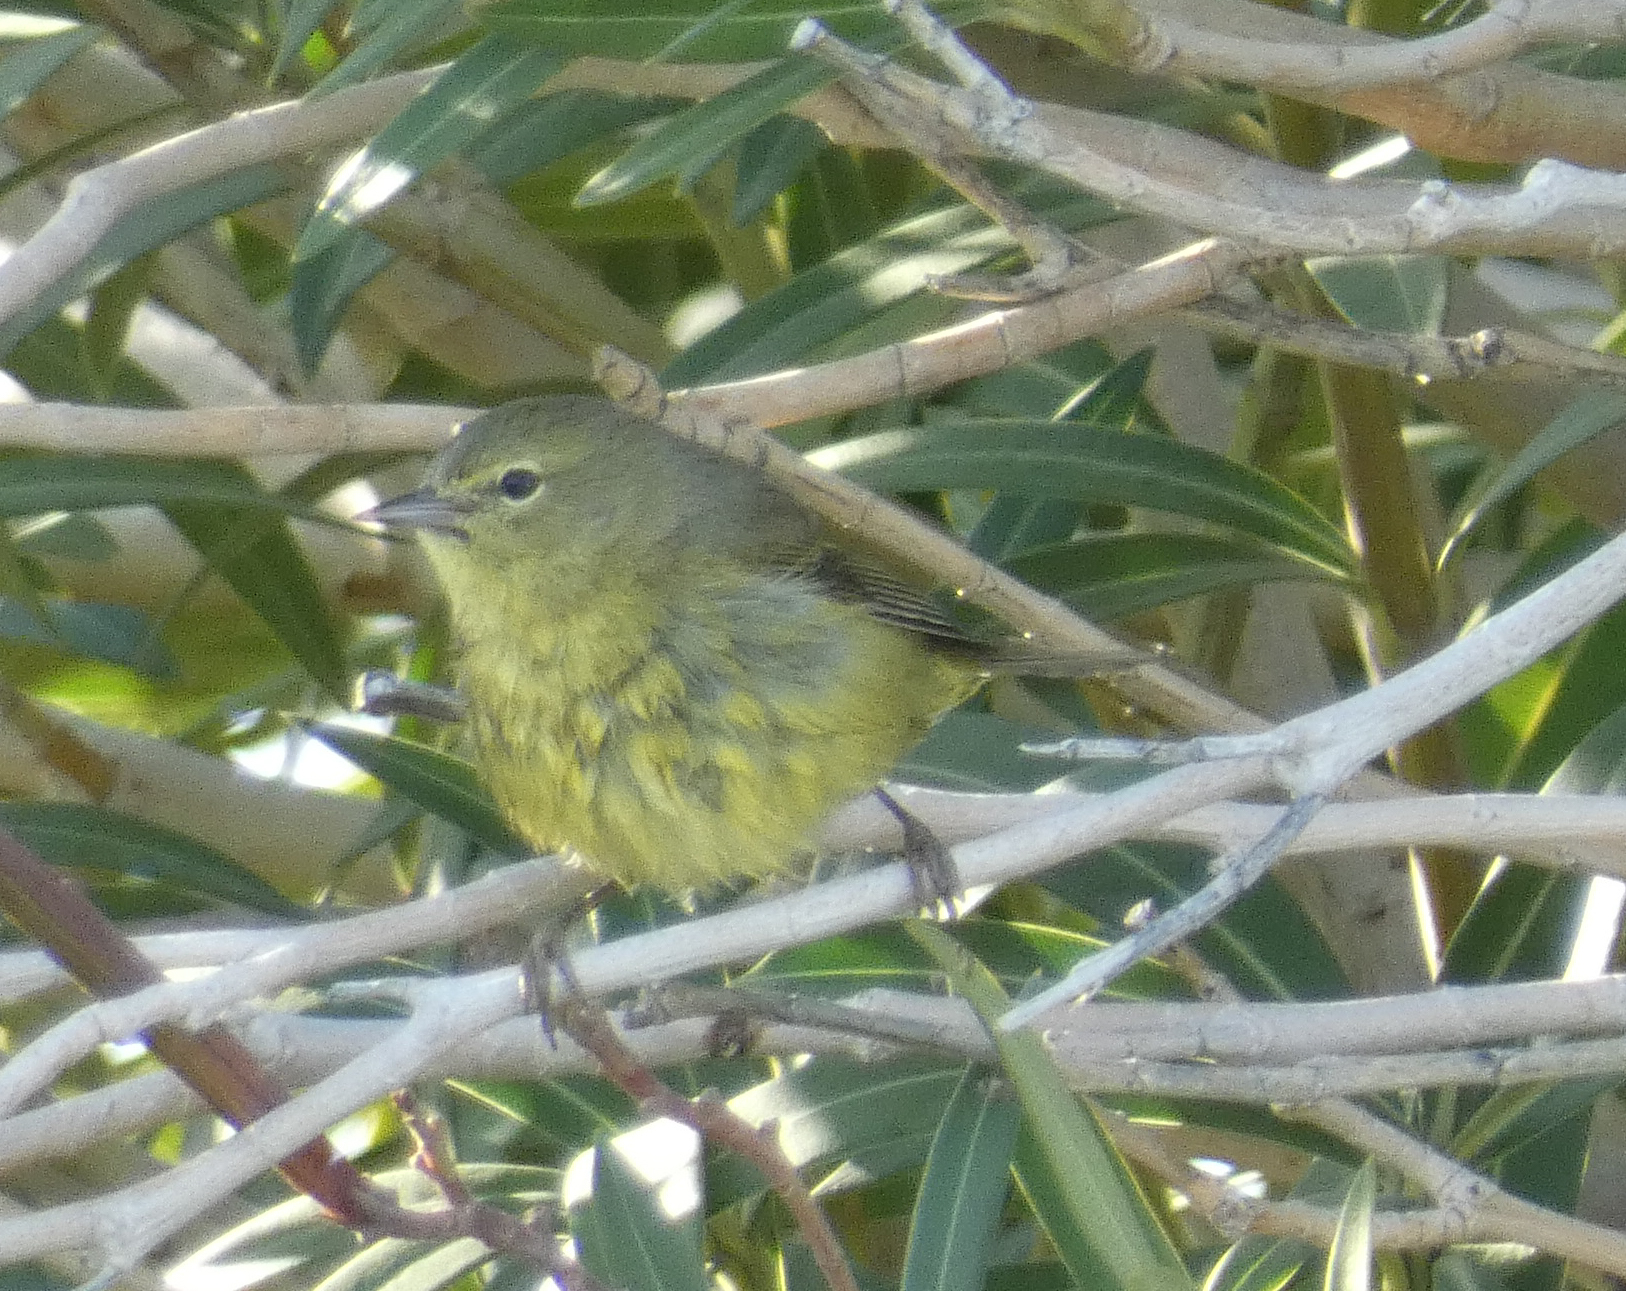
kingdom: Animalia
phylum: Chordata
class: Aves
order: Passeriformes
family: Parulidae
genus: Leiothlypis
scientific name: Leiothlypis celata
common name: Orange-crowned warbler
